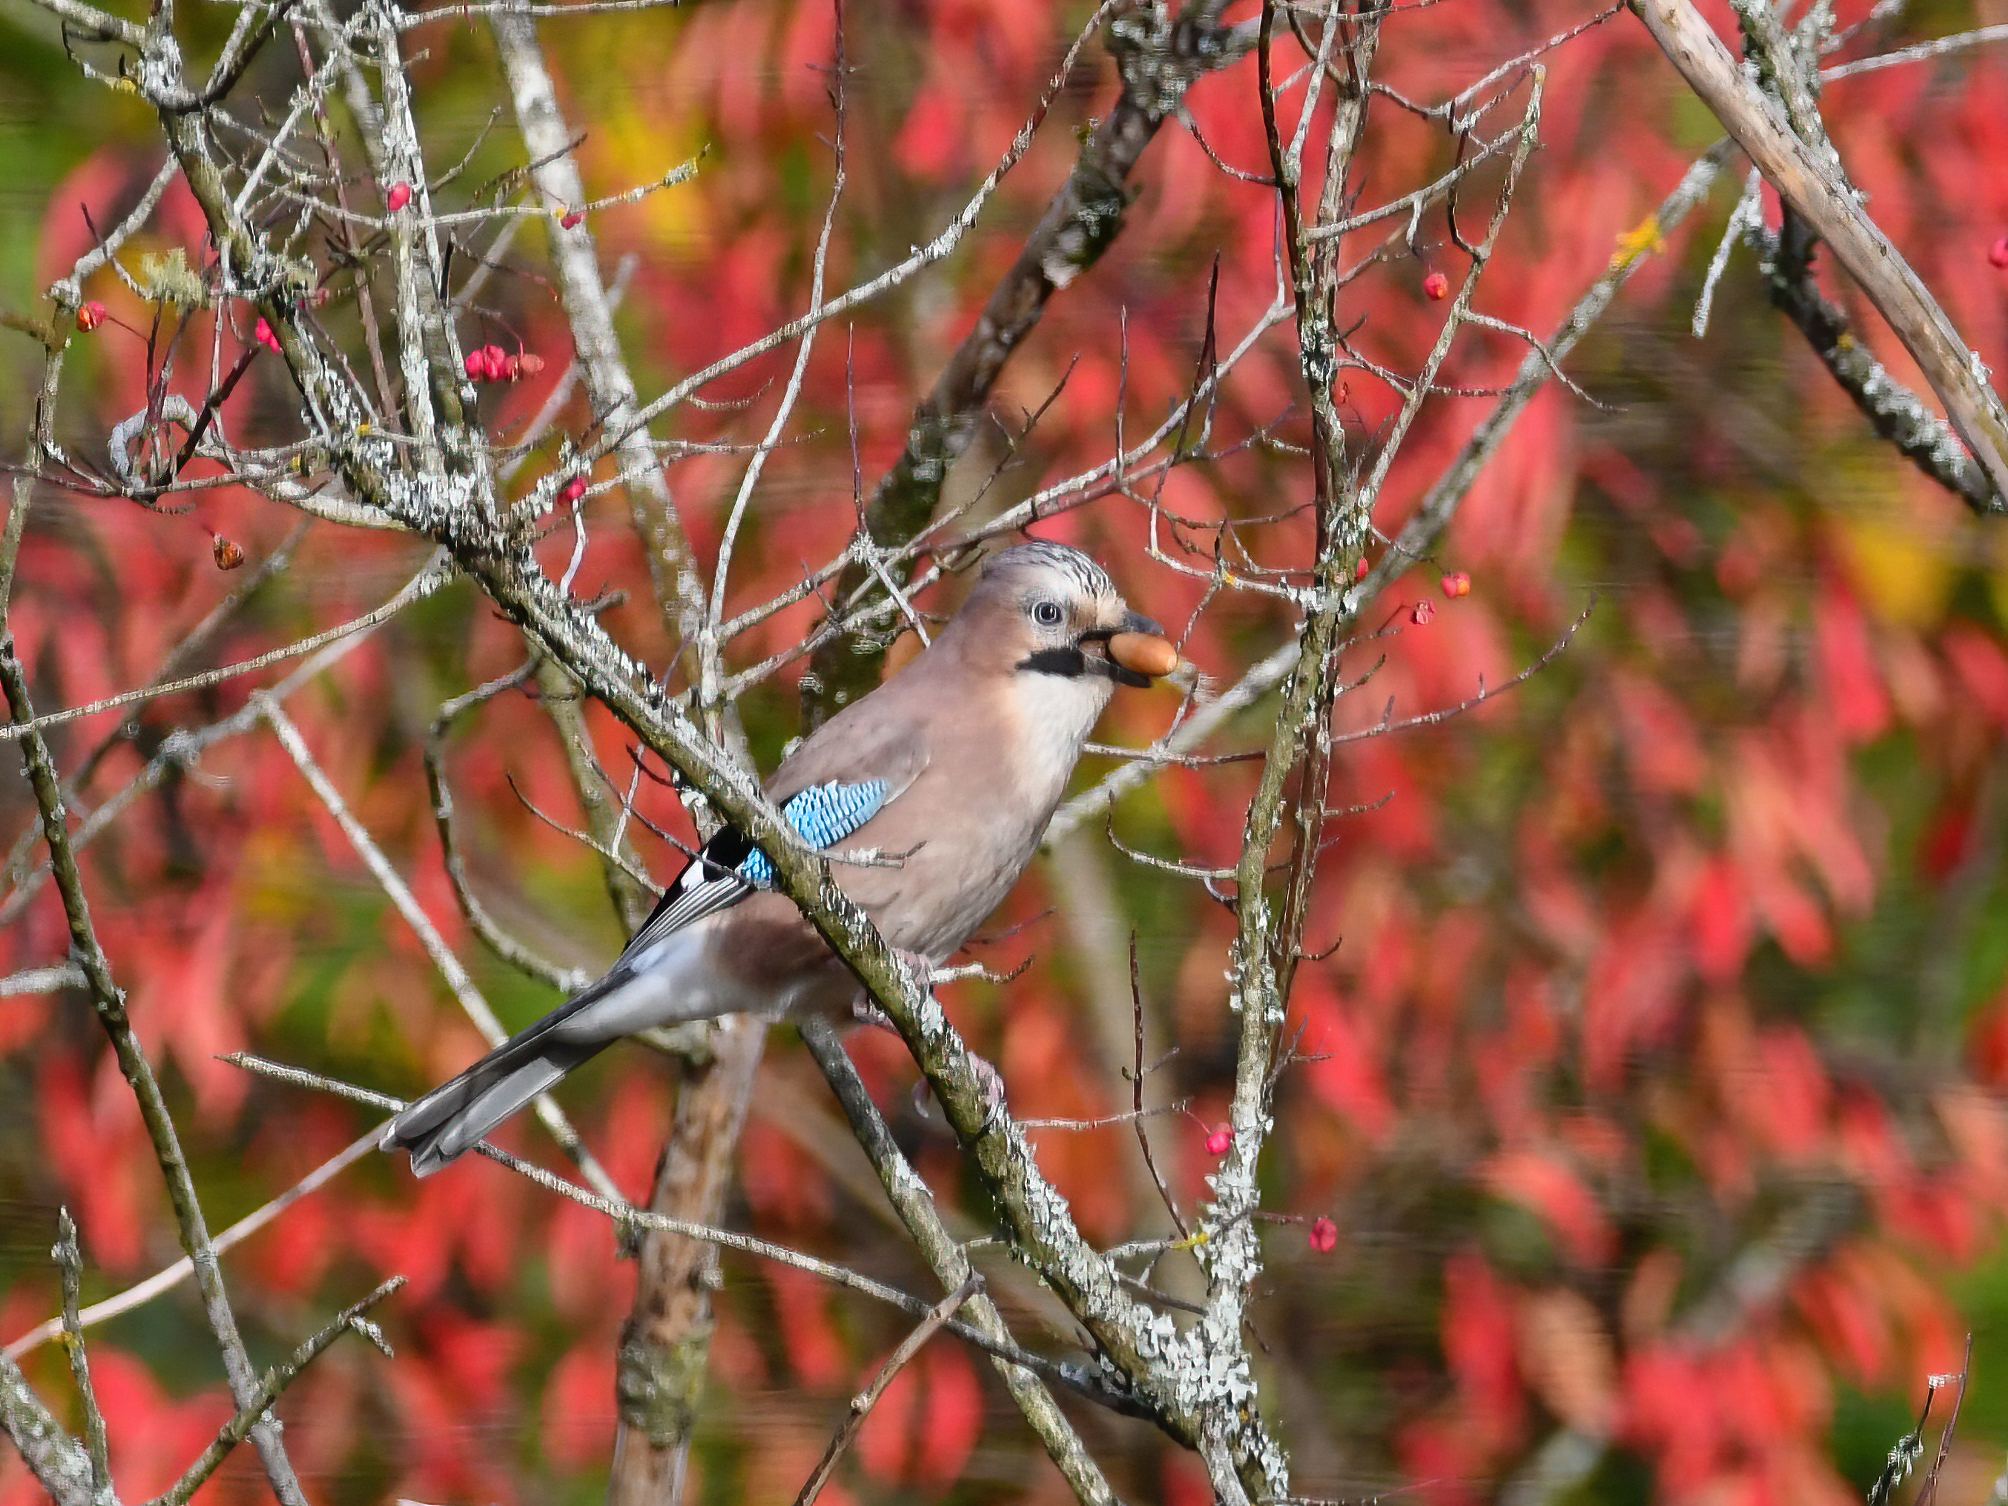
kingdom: Animalia
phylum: Chordata
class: Aves
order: Passeriformes
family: Corvidae
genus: Garrulus
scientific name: Garrulus glandarius
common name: Eurasian jay
